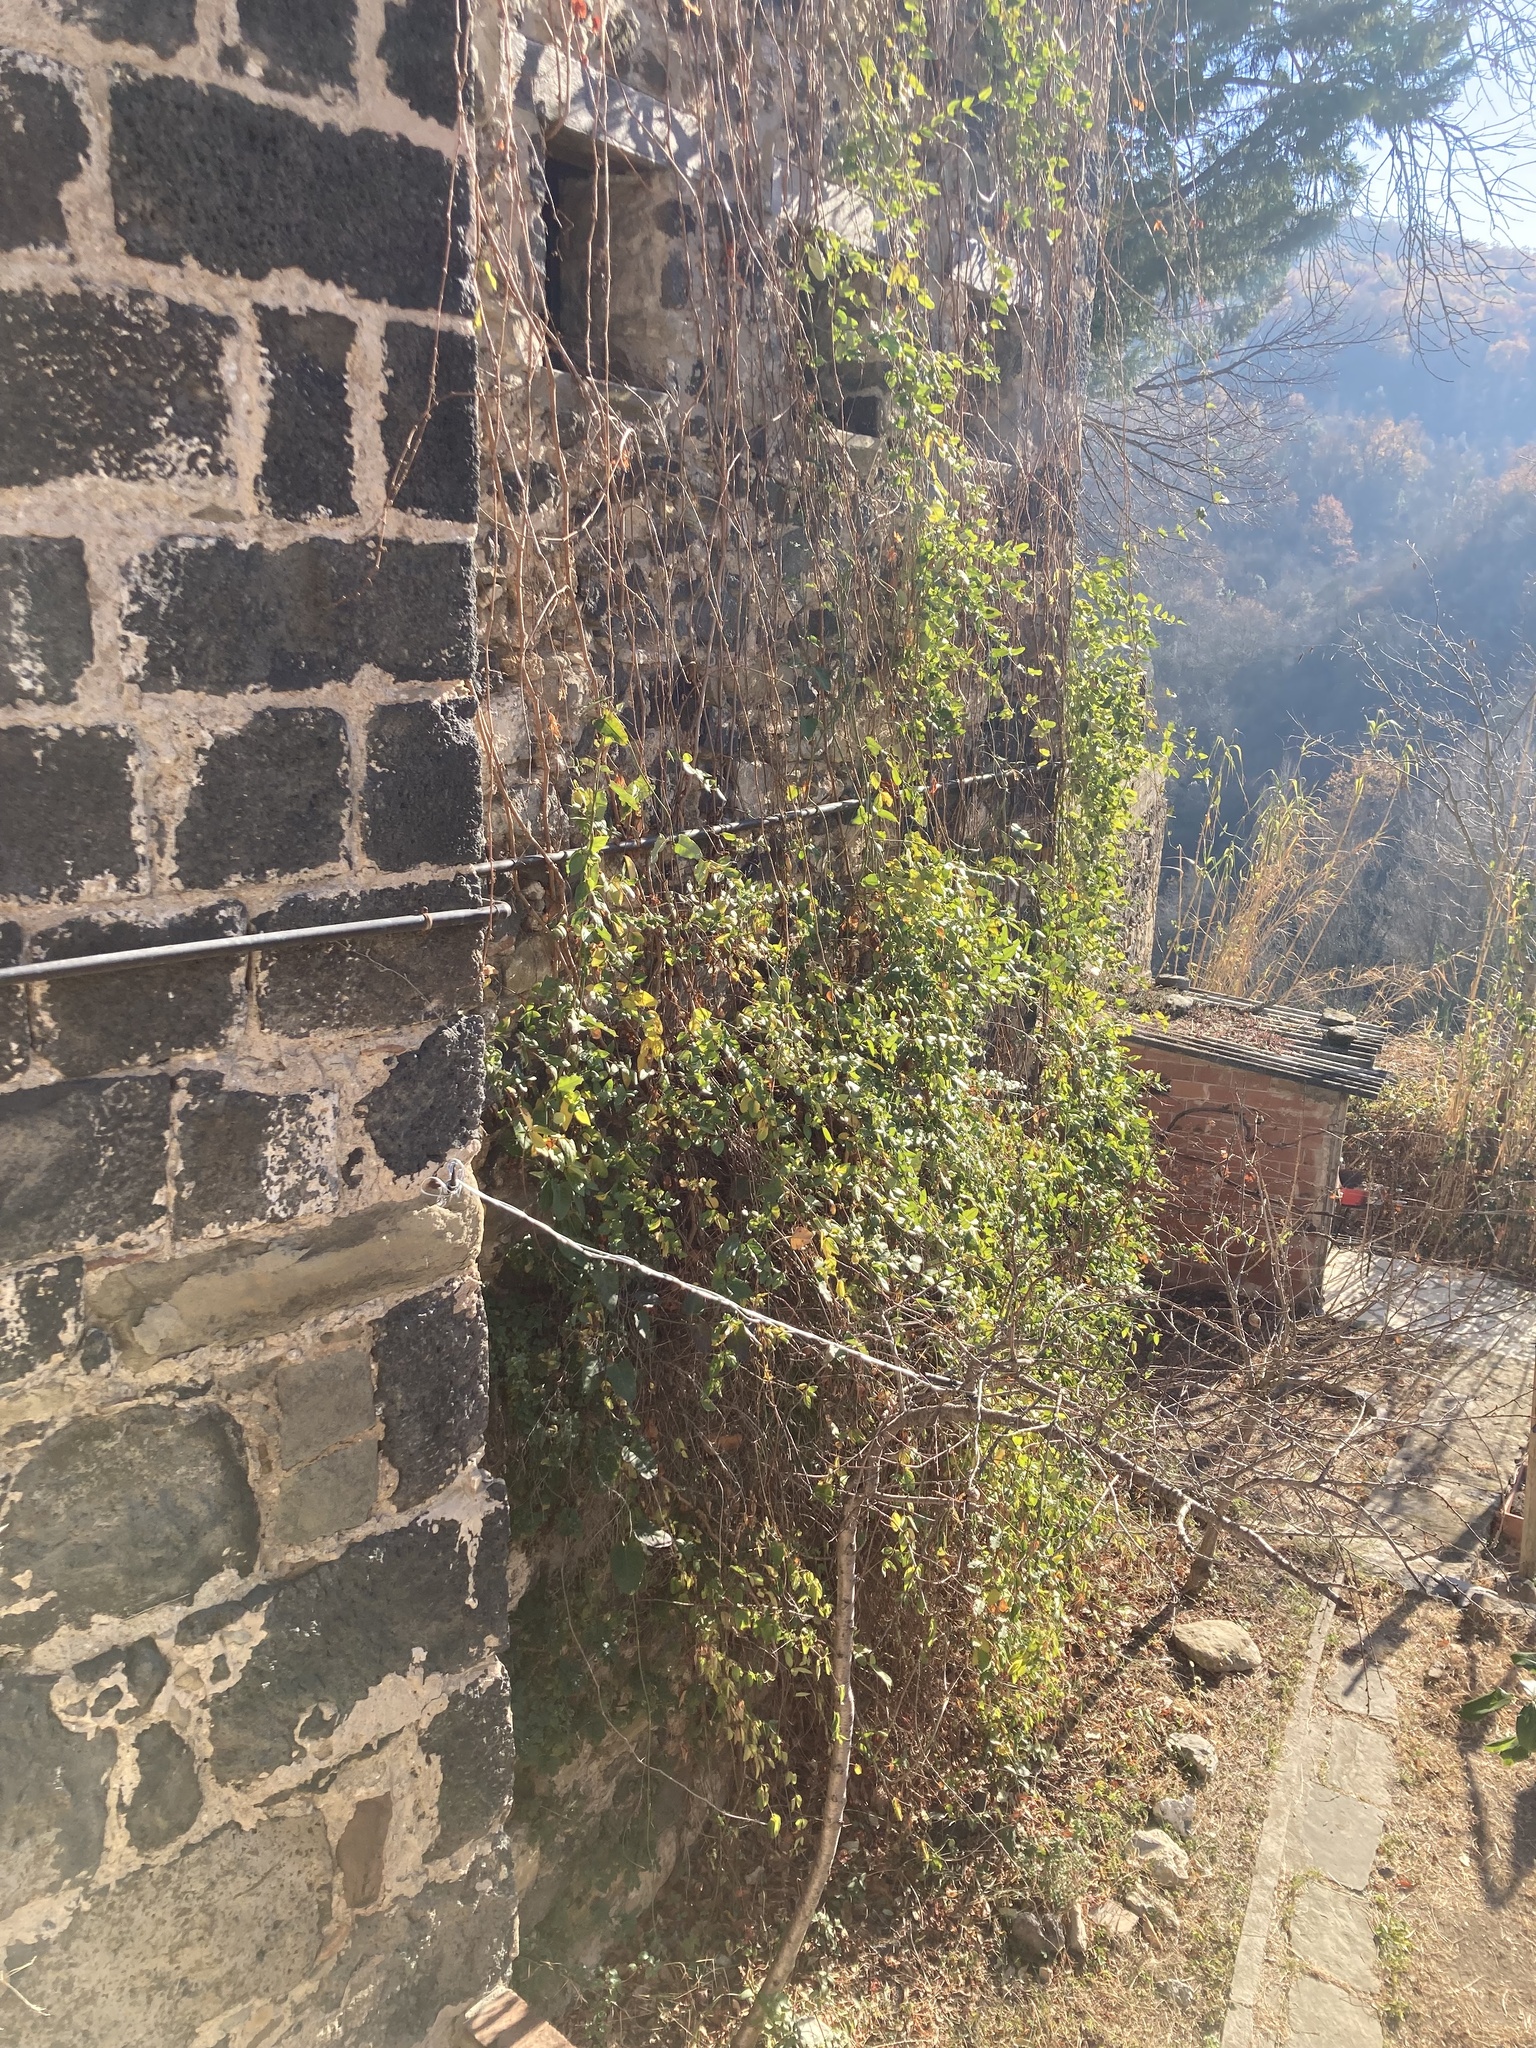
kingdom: Plantae
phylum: Tracheophyta
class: Magnoliopsida
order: Gentianales
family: Apocynaceae
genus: Araujia
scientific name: Araujia sericifera
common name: White bladderflower
